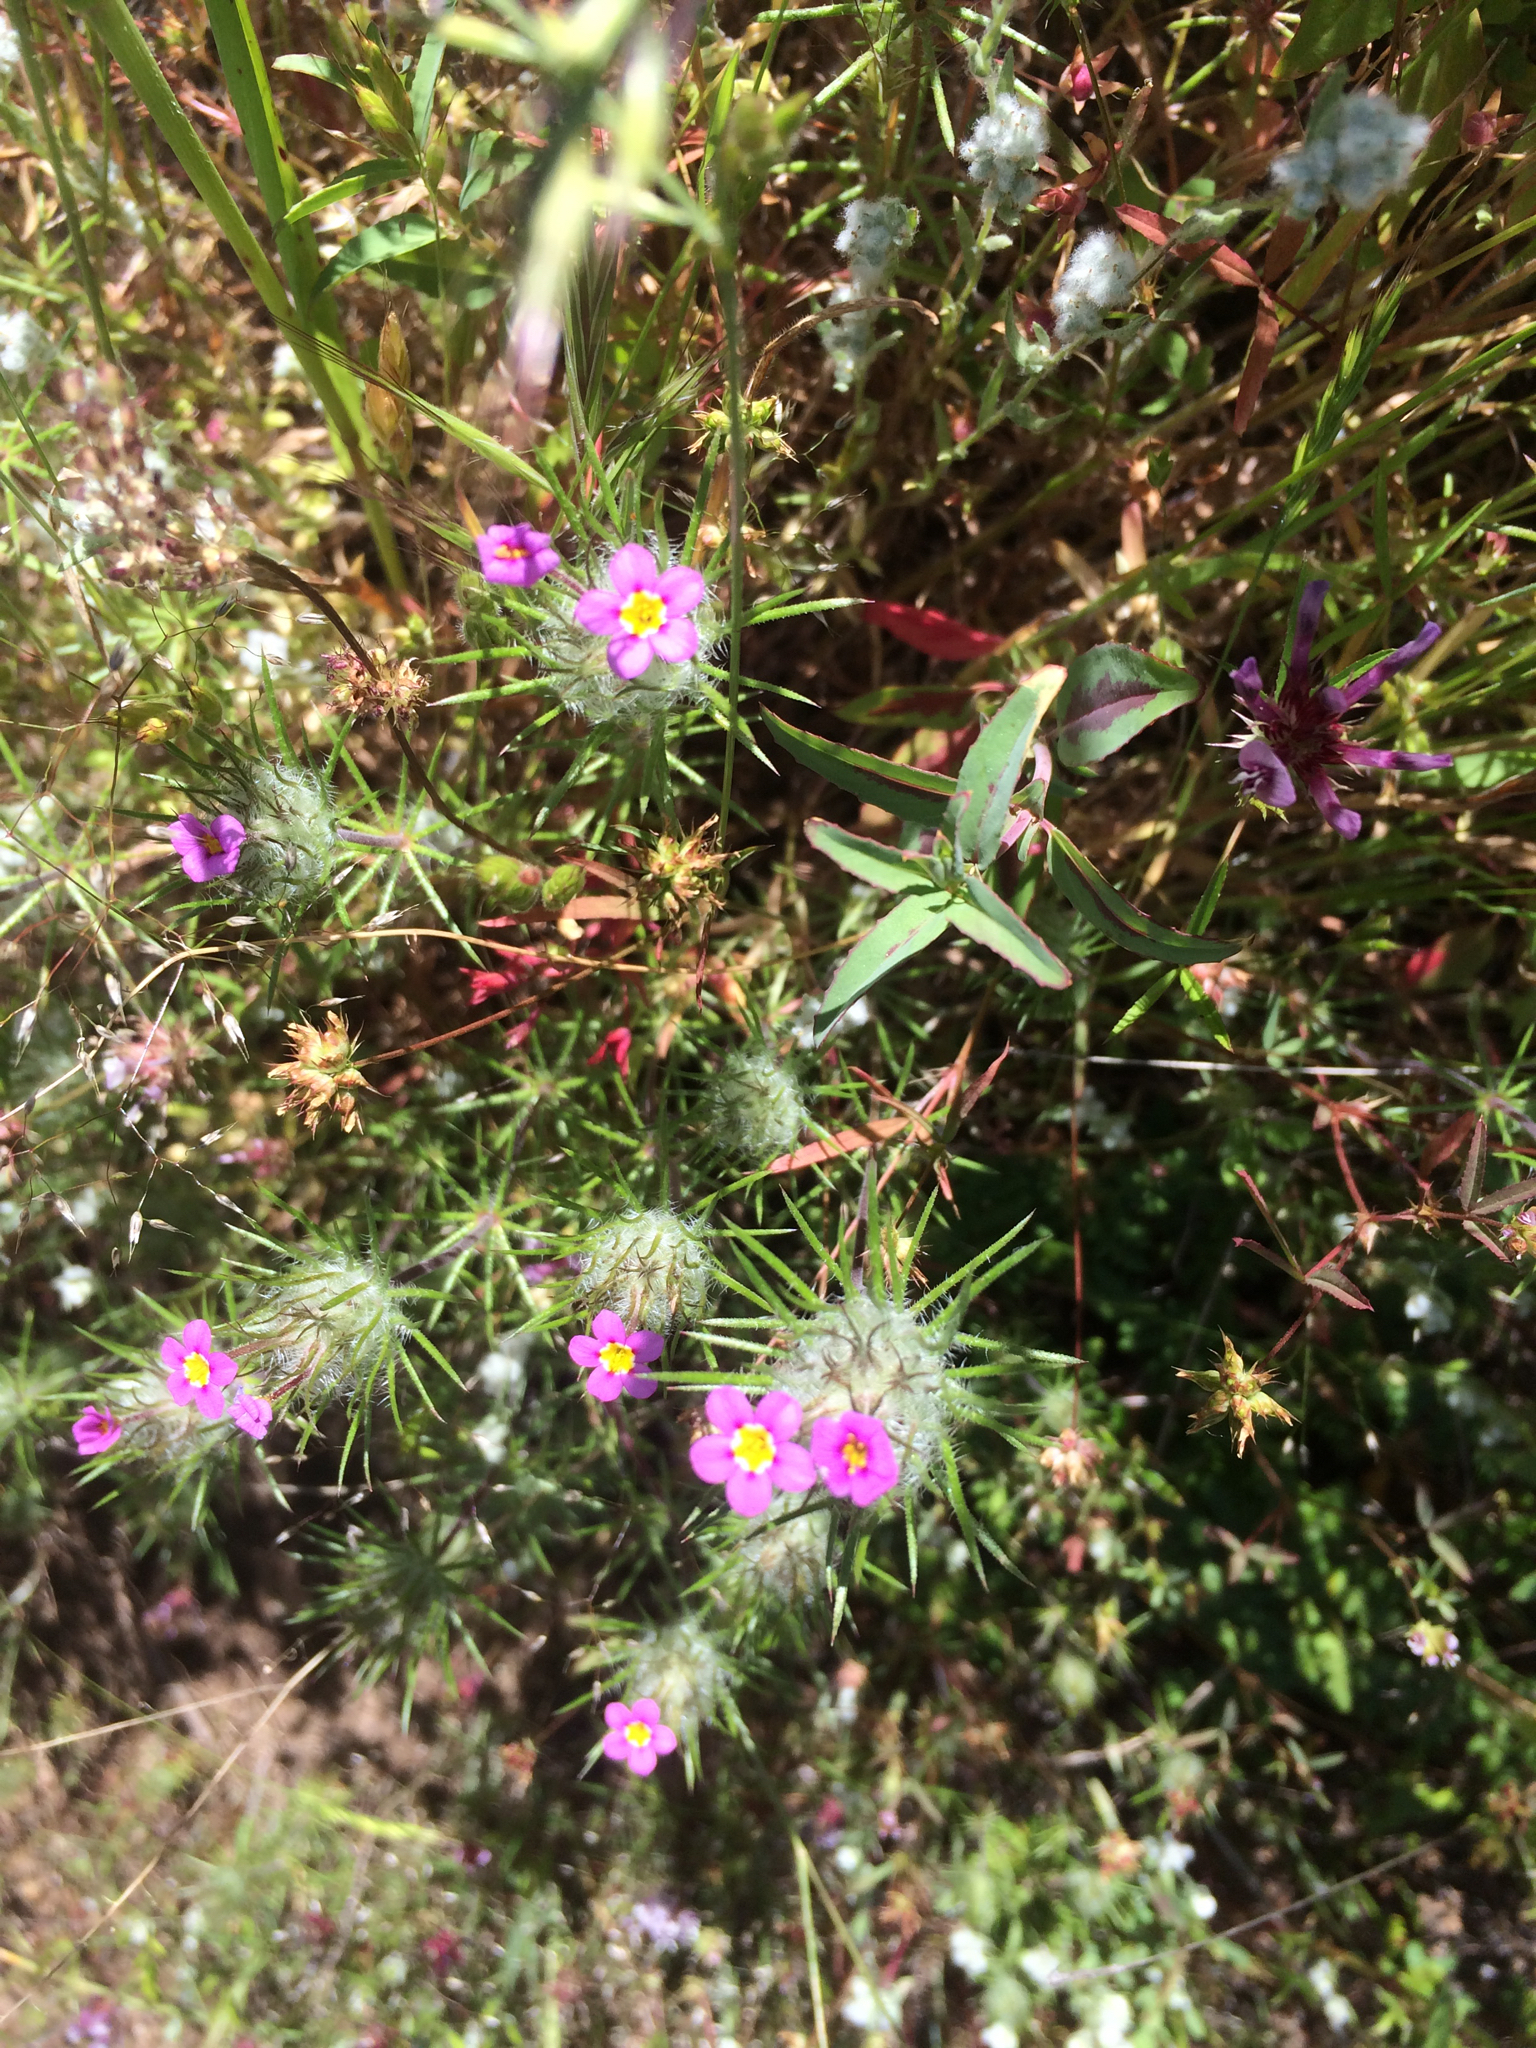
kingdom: Plantae
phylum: Tracheophyta
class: Magnoliopsida
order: Ericales
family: Polemoniaceae
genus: Leptosiphon
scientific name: Leptosiphon ciliatus
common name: Whiskerbrush
